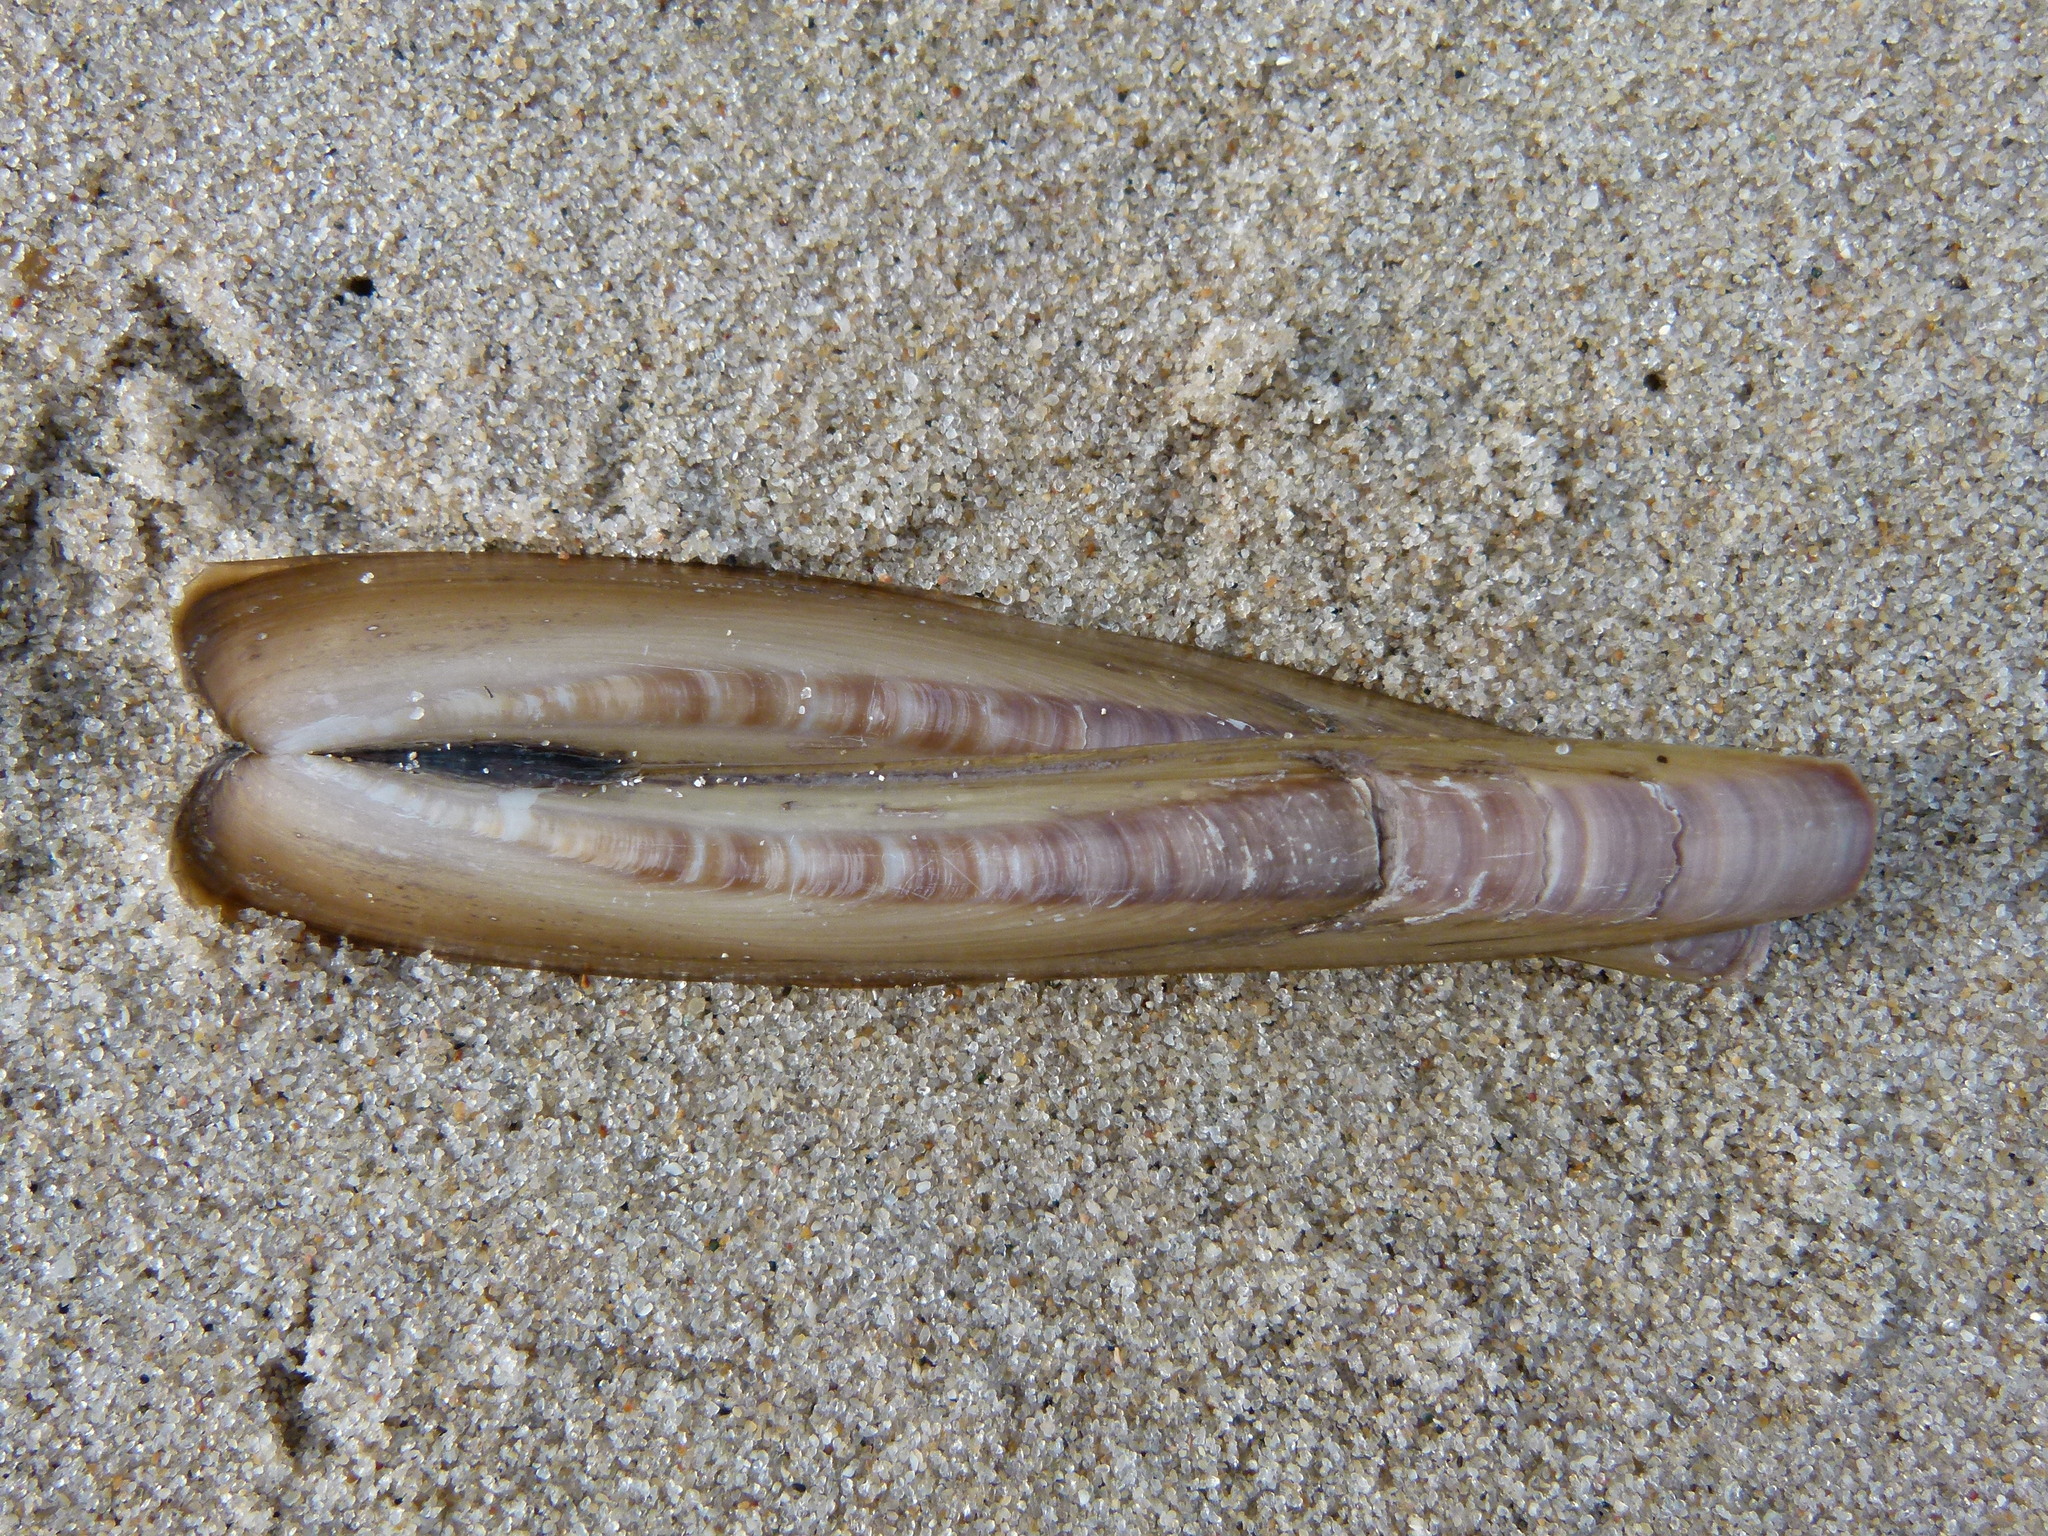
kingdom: Animalia
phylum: Mollusca
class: Bivalvia
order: Adapedonta
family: Pharidae
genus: Ensis
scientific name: Ensis leei
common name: American jack knife clam
